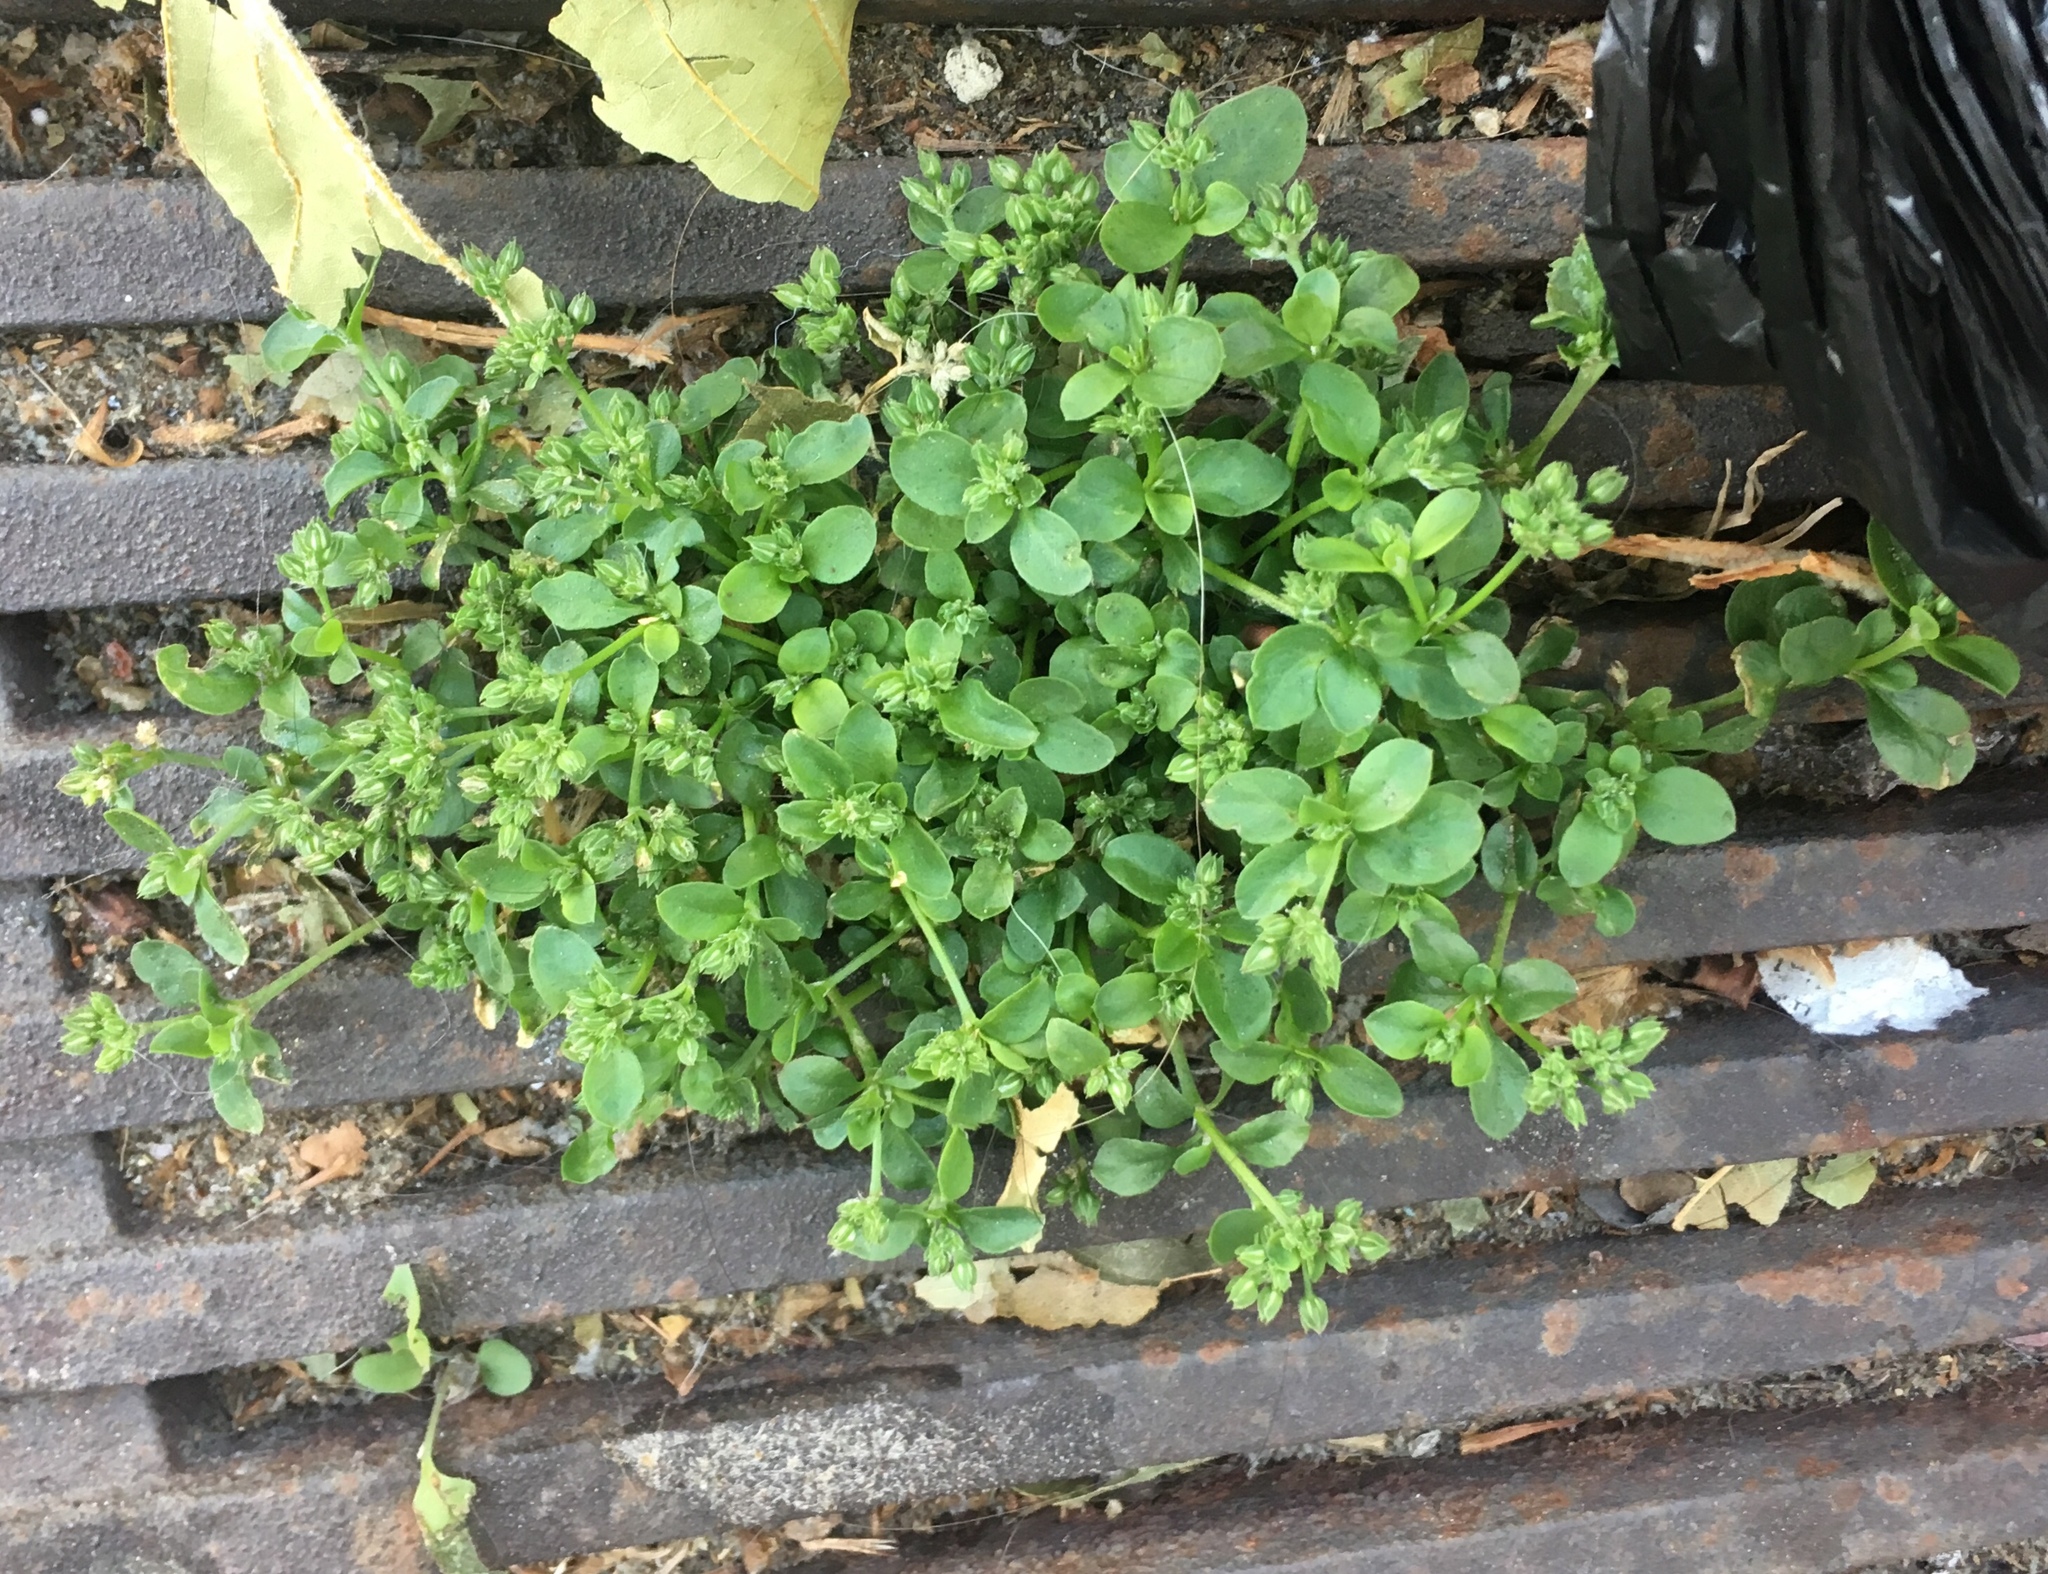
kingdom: Plantae
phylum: Tracheophyta
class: Magnoliopsida
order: Caryophyllales
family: Caryophyllaceae
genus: Polycarpon
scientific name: Polycarpon tetraphyllum
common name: Four-leaved all-seed
